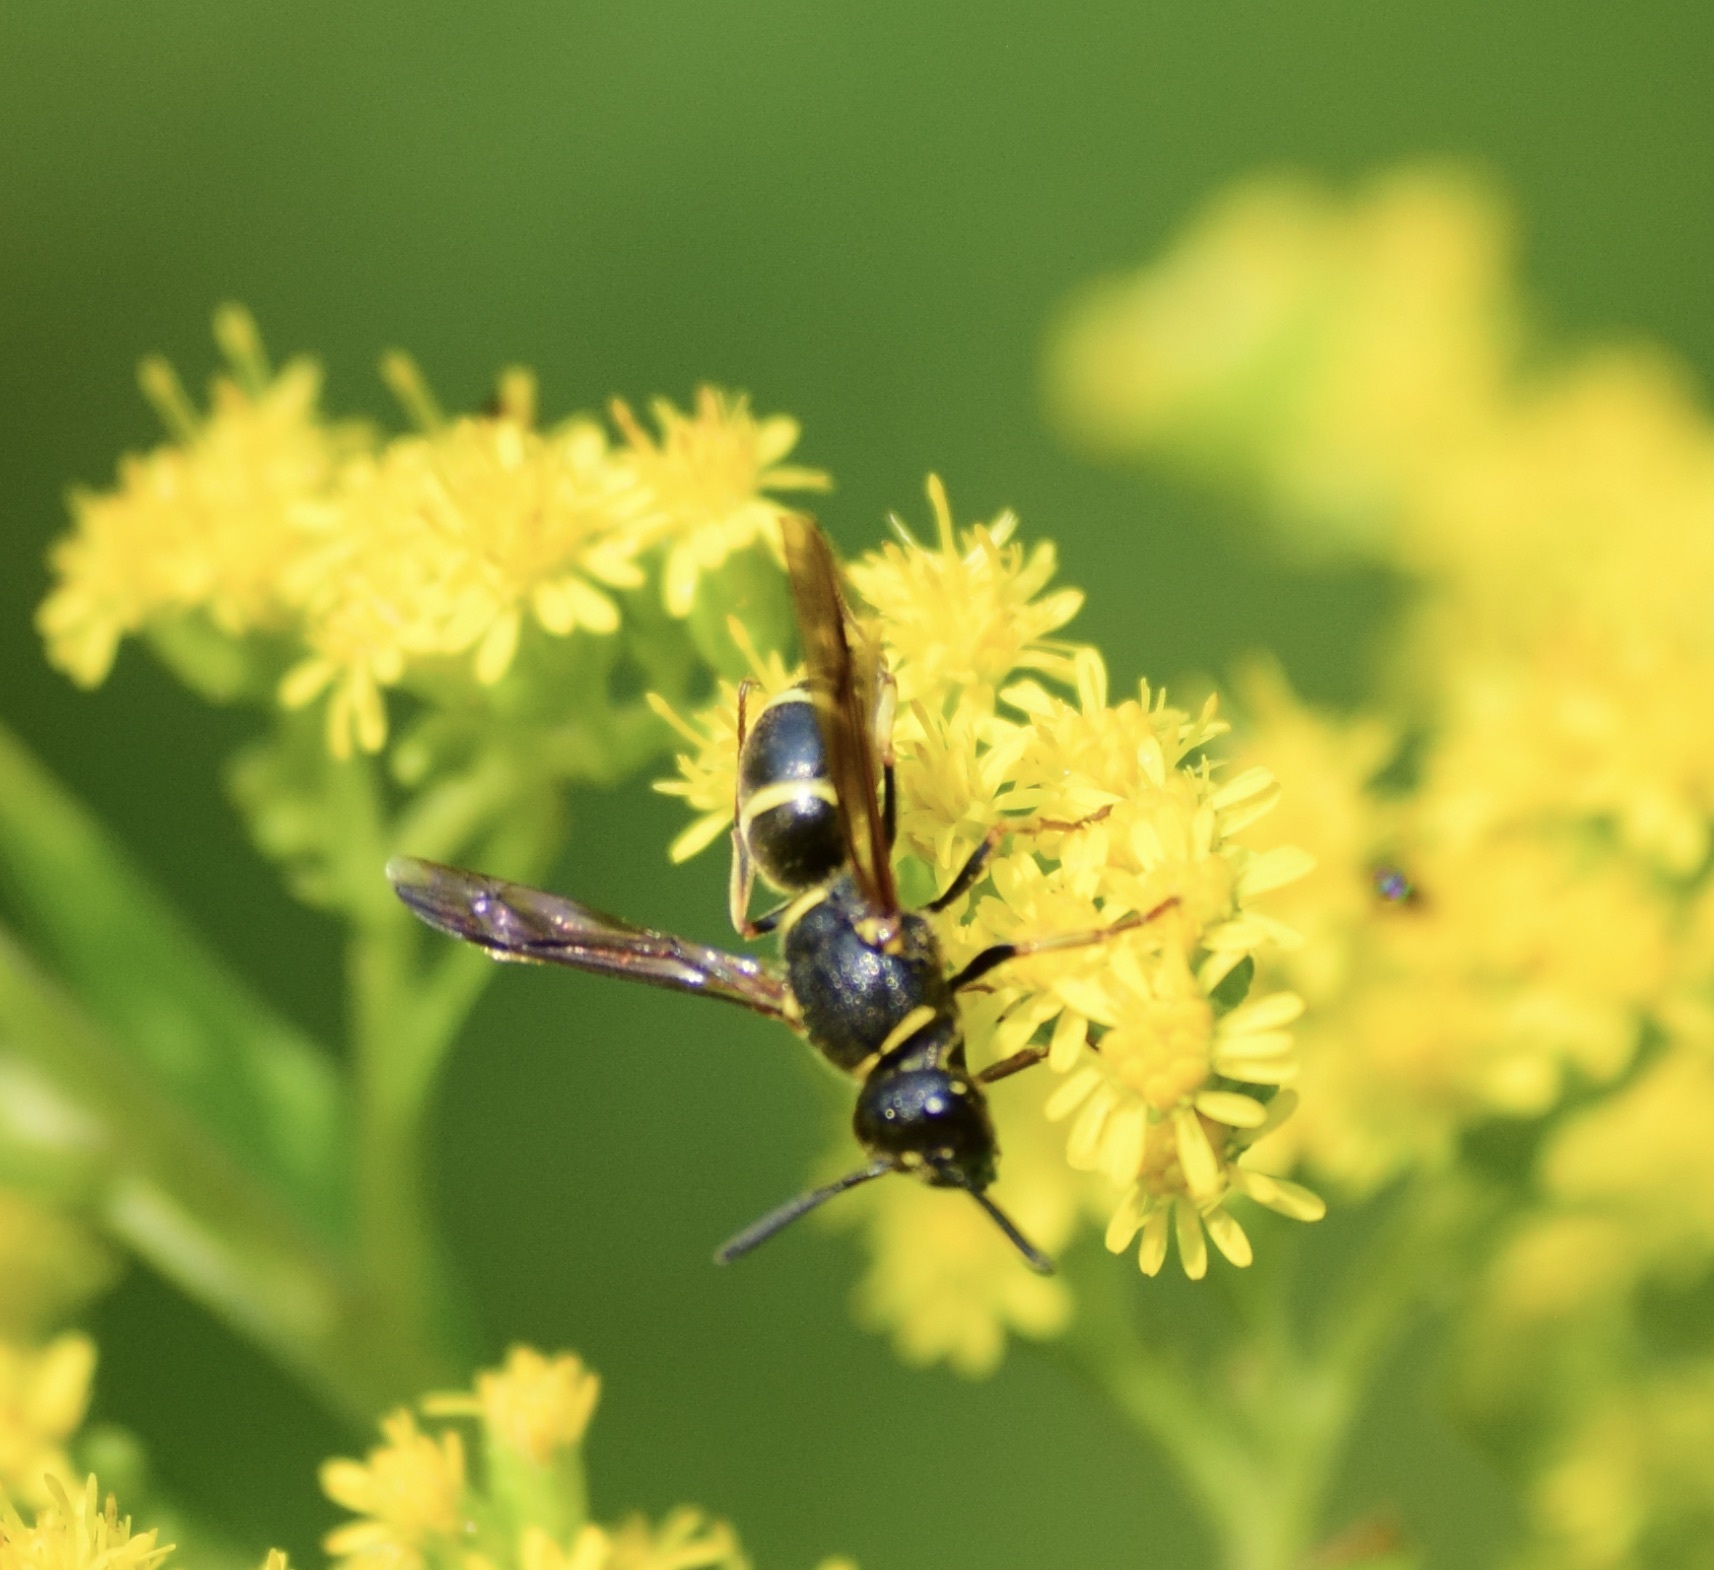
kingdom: Animalia
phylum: Arthropoda
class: Insecta
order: Hymenoptera
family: Eumenidae
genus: Euodynerus
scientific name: Euodynerus foraminatus
